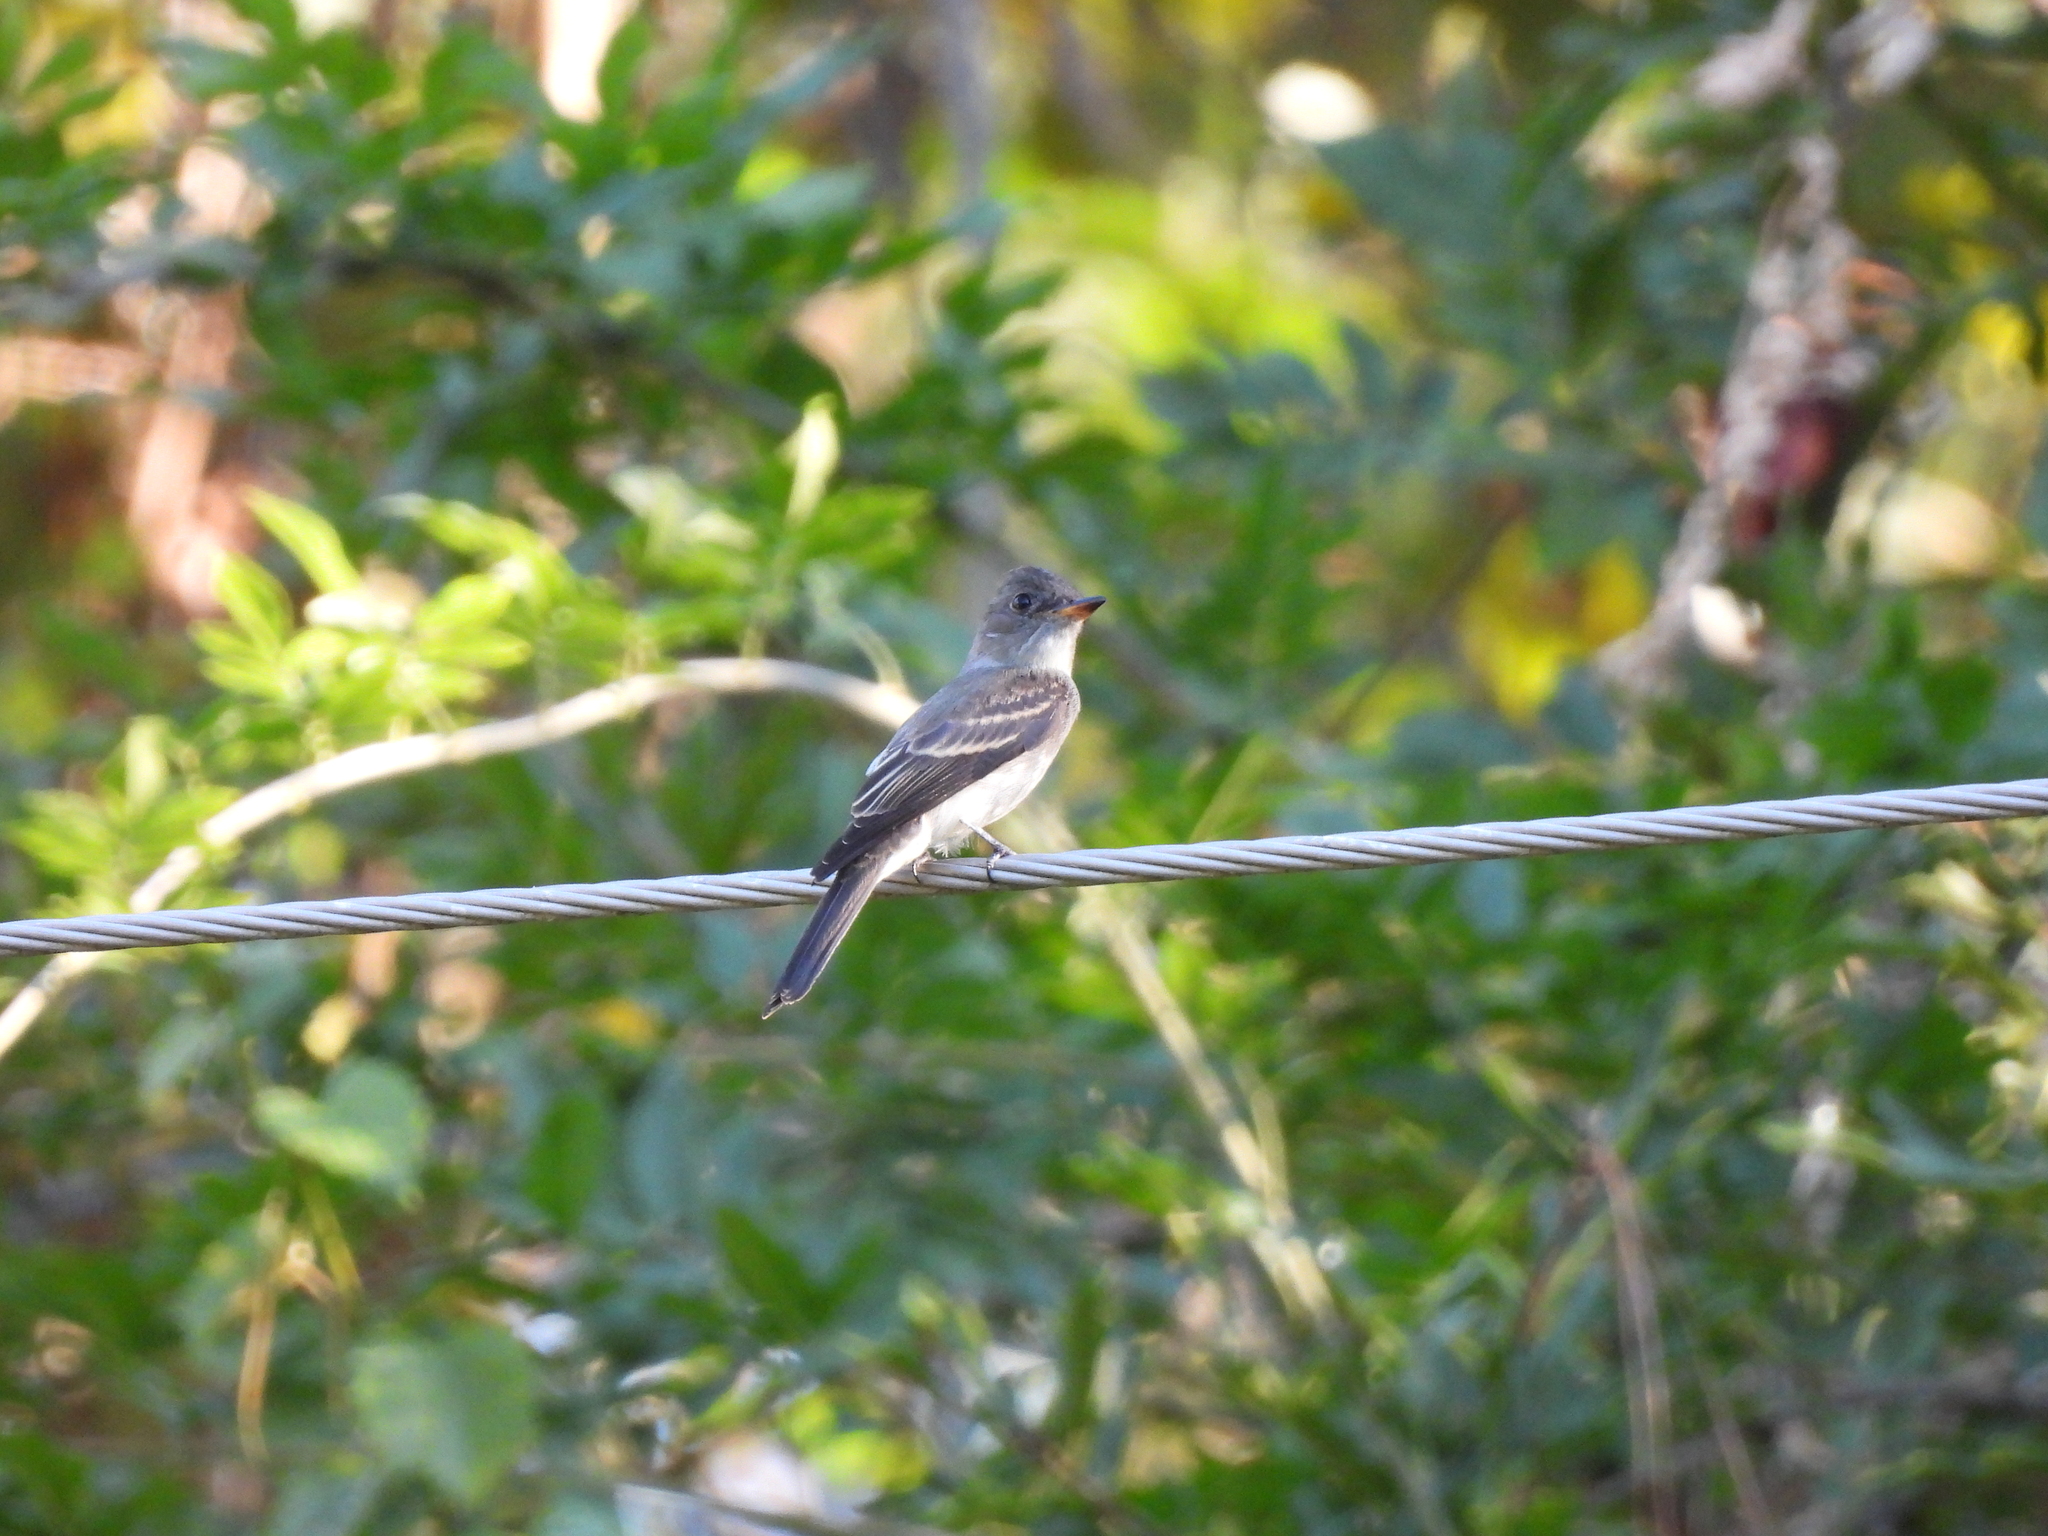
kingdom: Animalia
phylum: Chordata
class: Aves
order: Passeriformes
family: Tyrannidae
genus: Contopus
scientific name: Contopus virens
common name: Eastern wood-pewee
